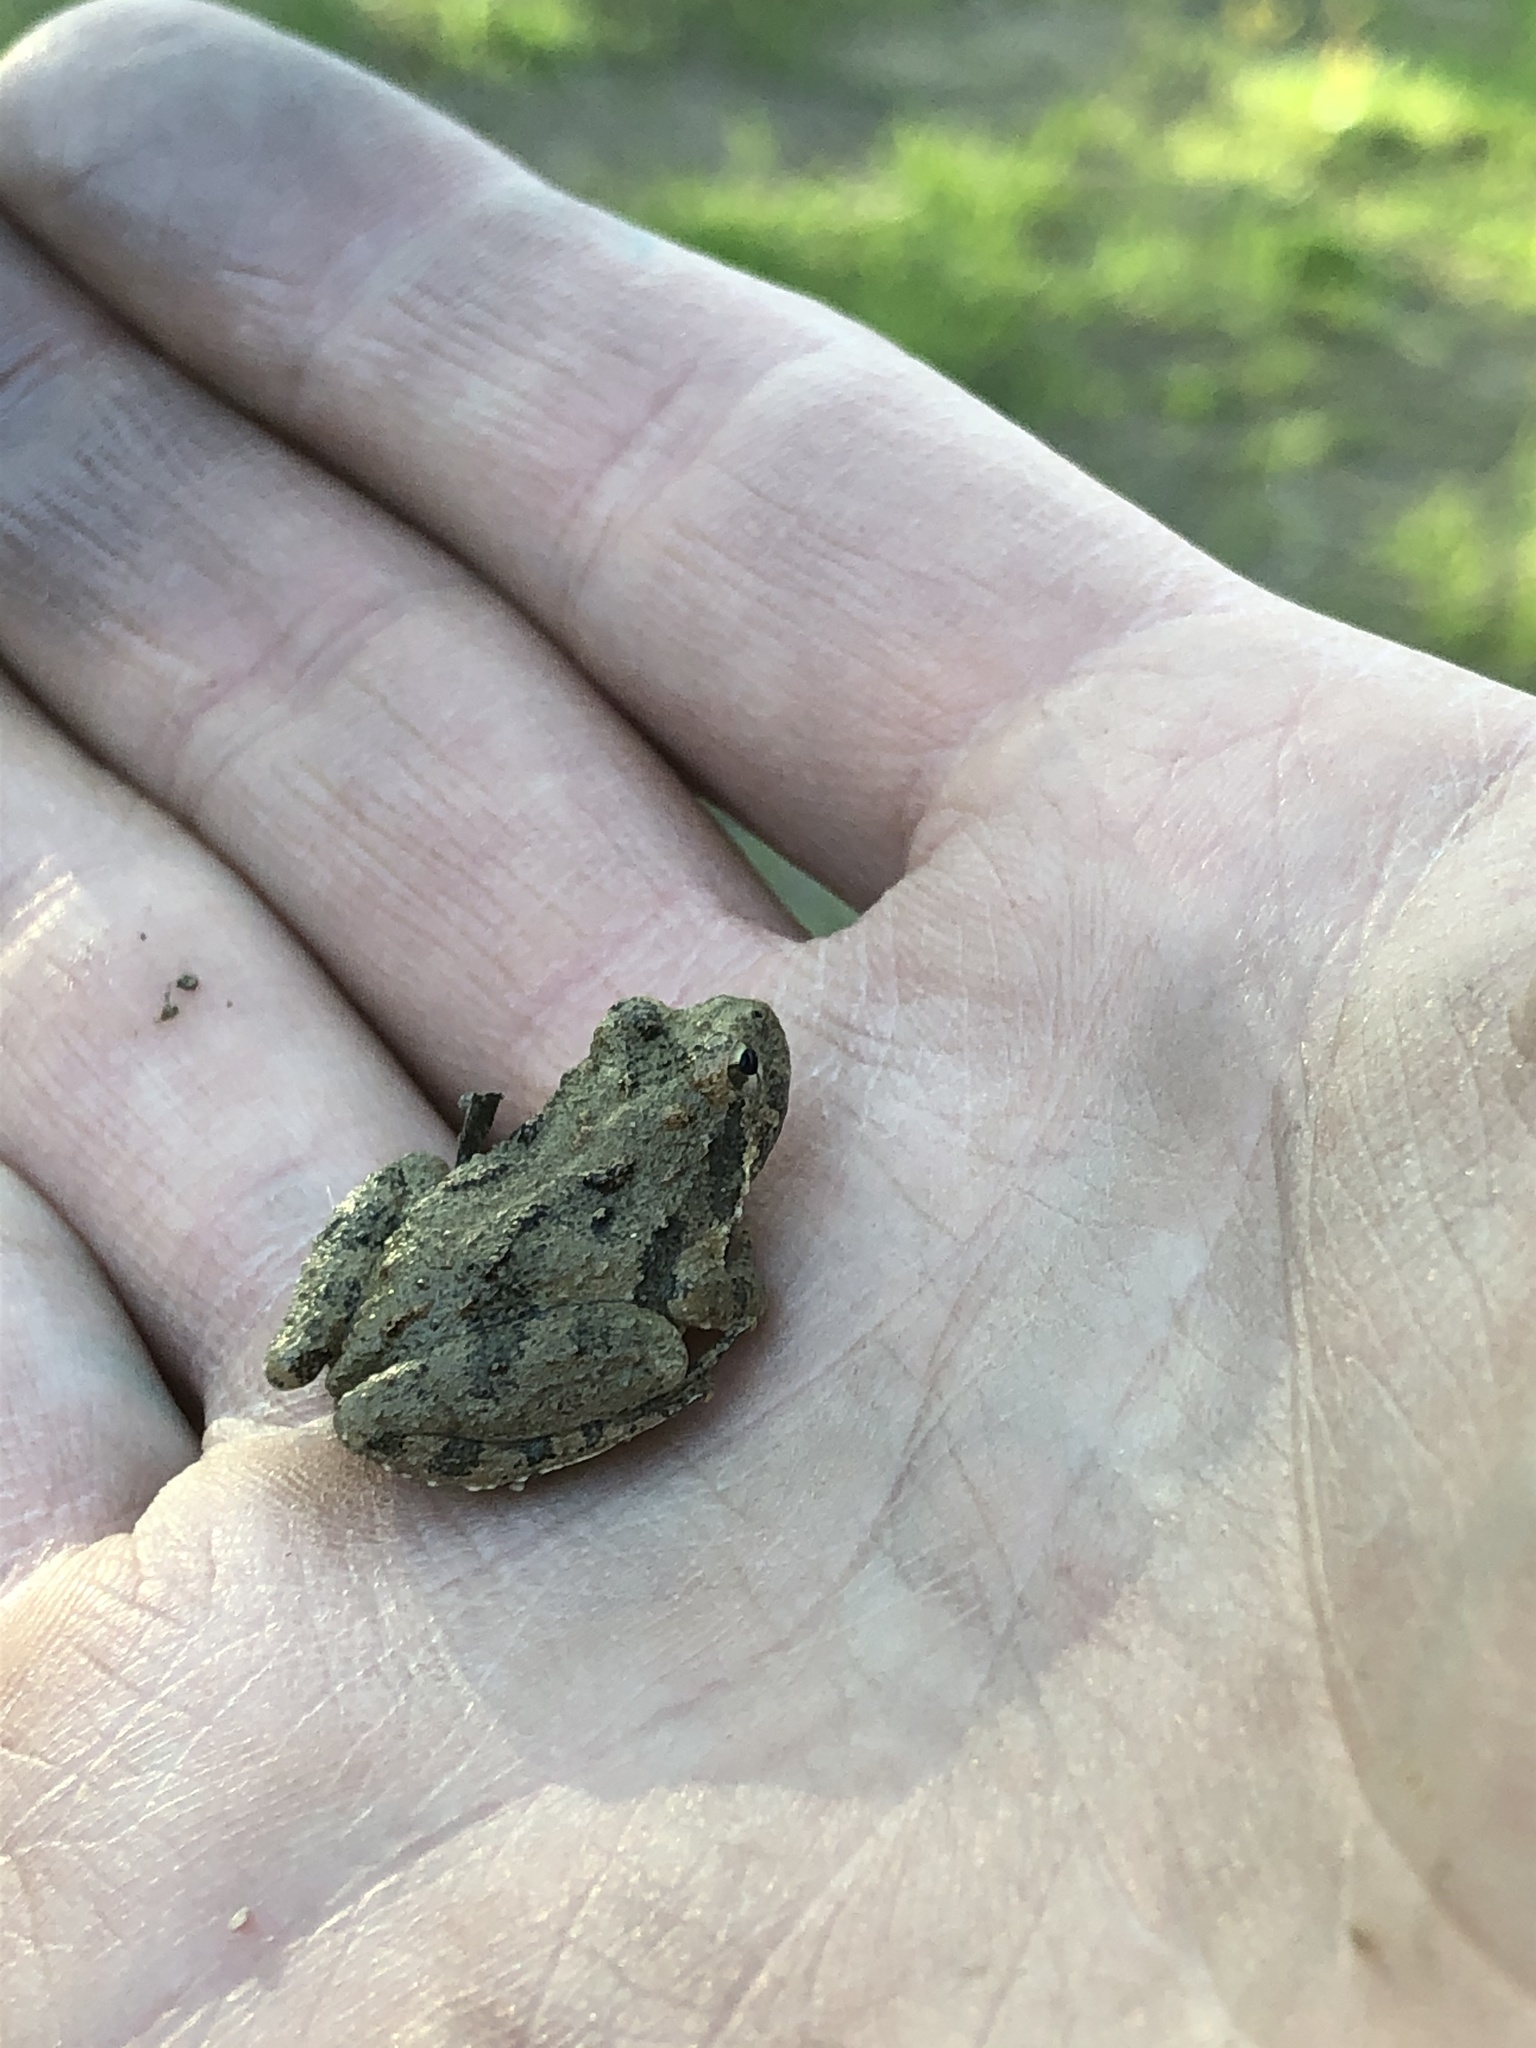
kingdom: Animalia
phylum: Chordata
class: Amphibia
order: Anura
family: Hylidae
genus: Acris
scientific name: Acris blanchardi
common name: Blanchard's cricket frog
